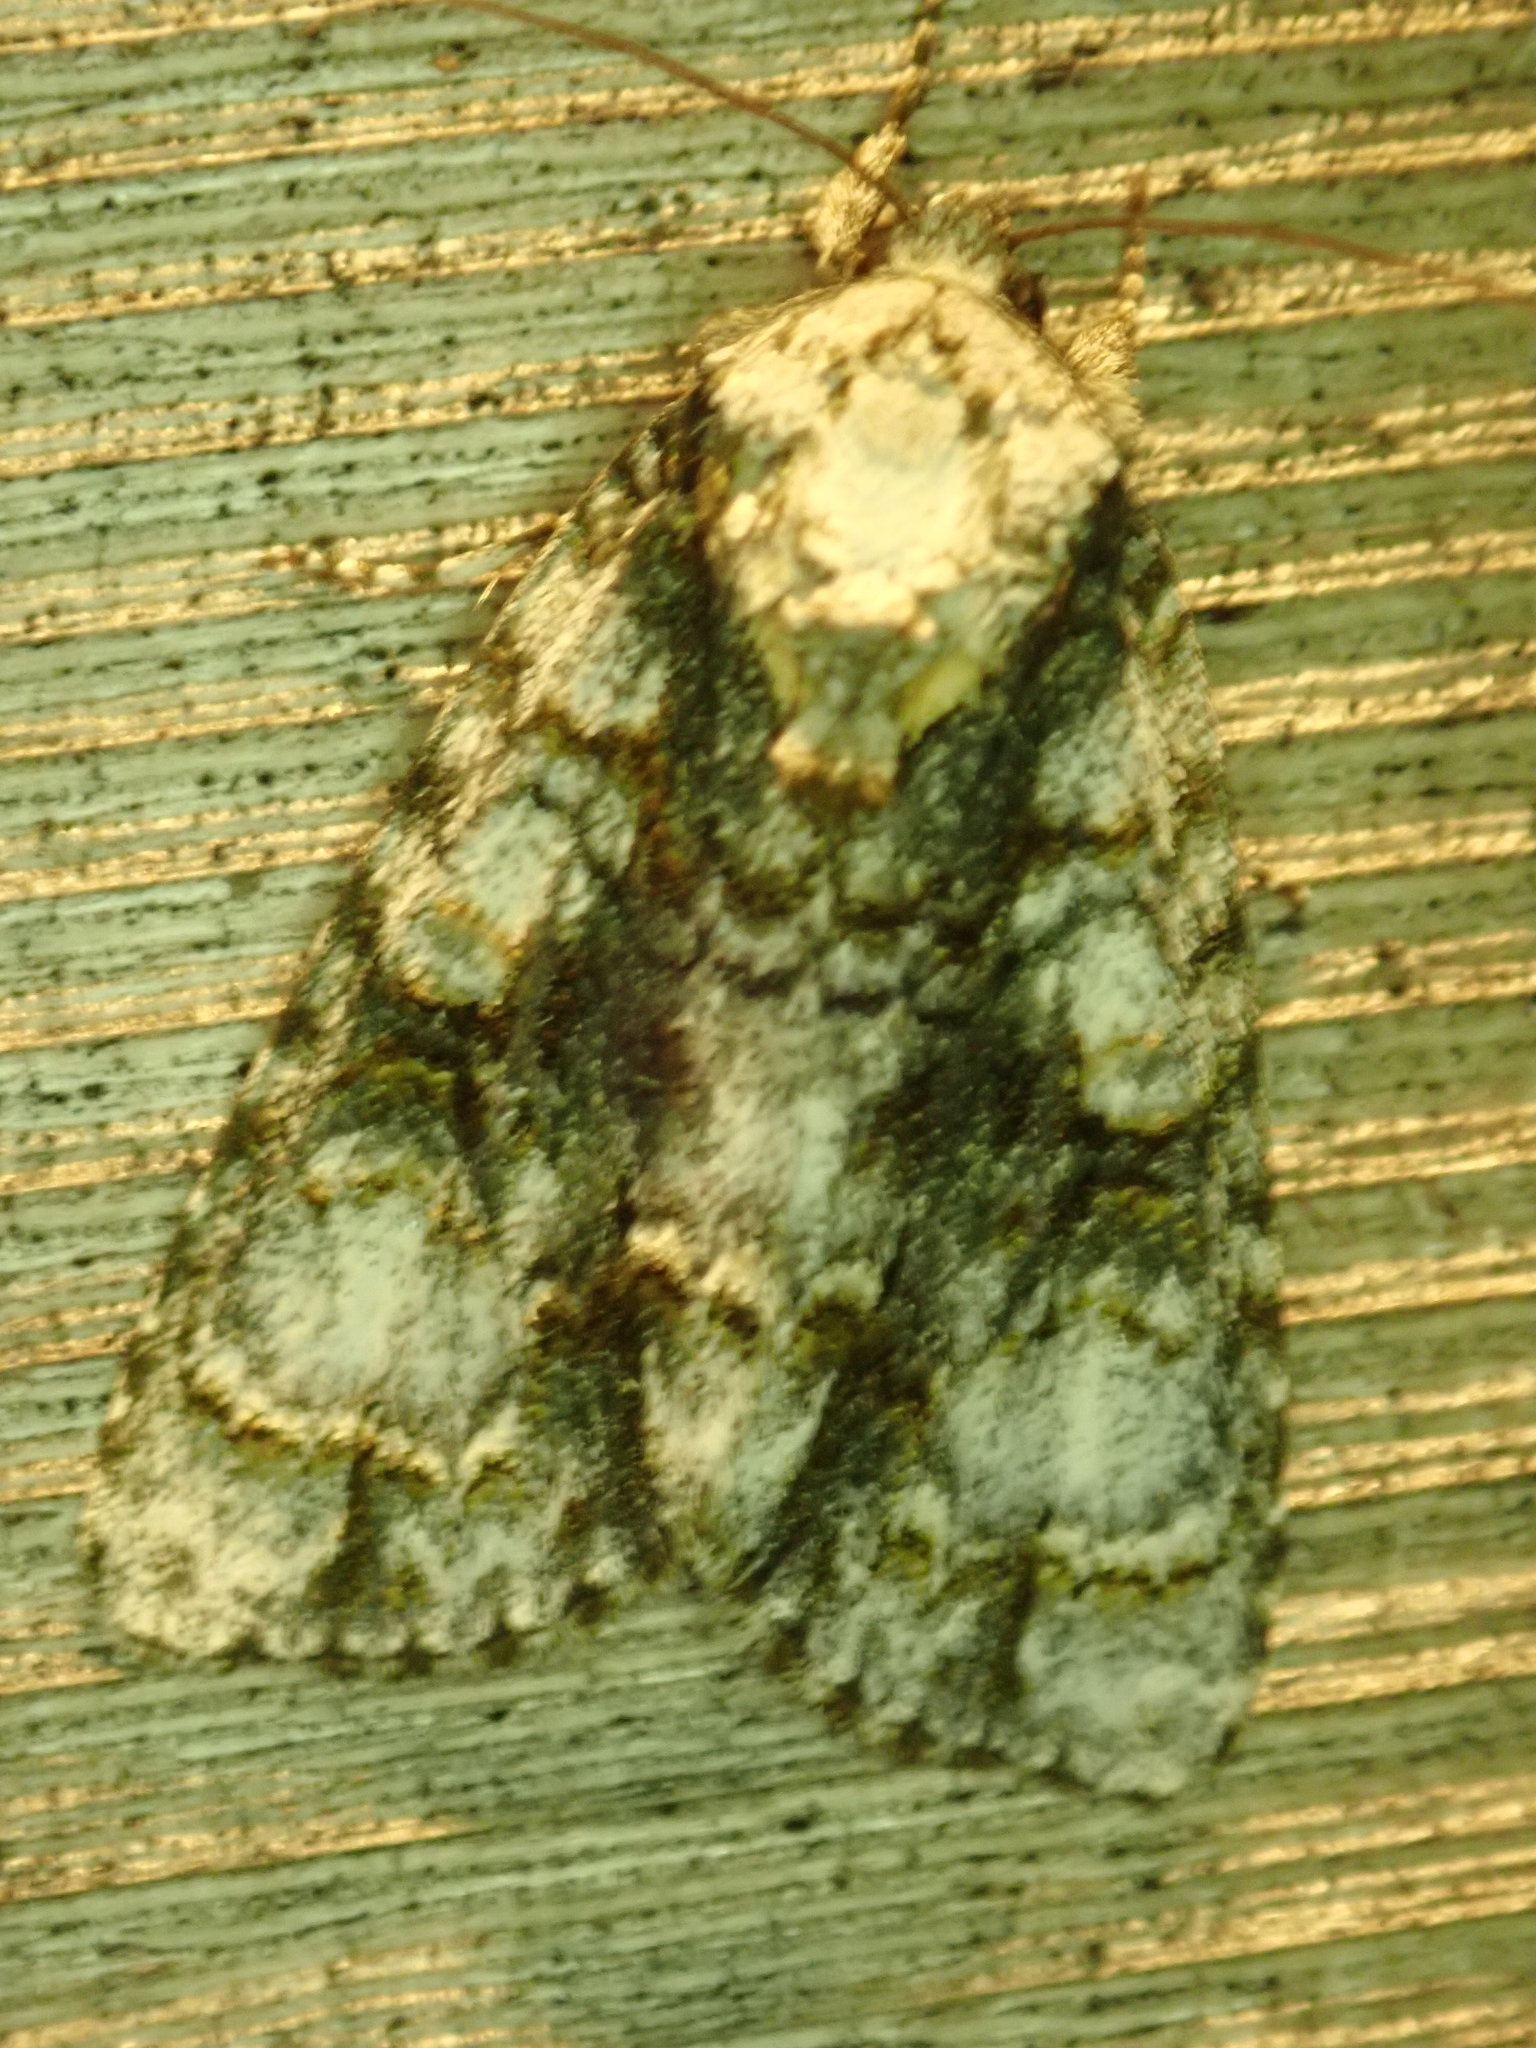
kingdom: Animalia
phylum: Arthropoda
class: Insecta
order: Lepidoptera
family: Noctuidae
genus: Acronicta
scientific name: Acronicta superans
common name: Splendid dagger
